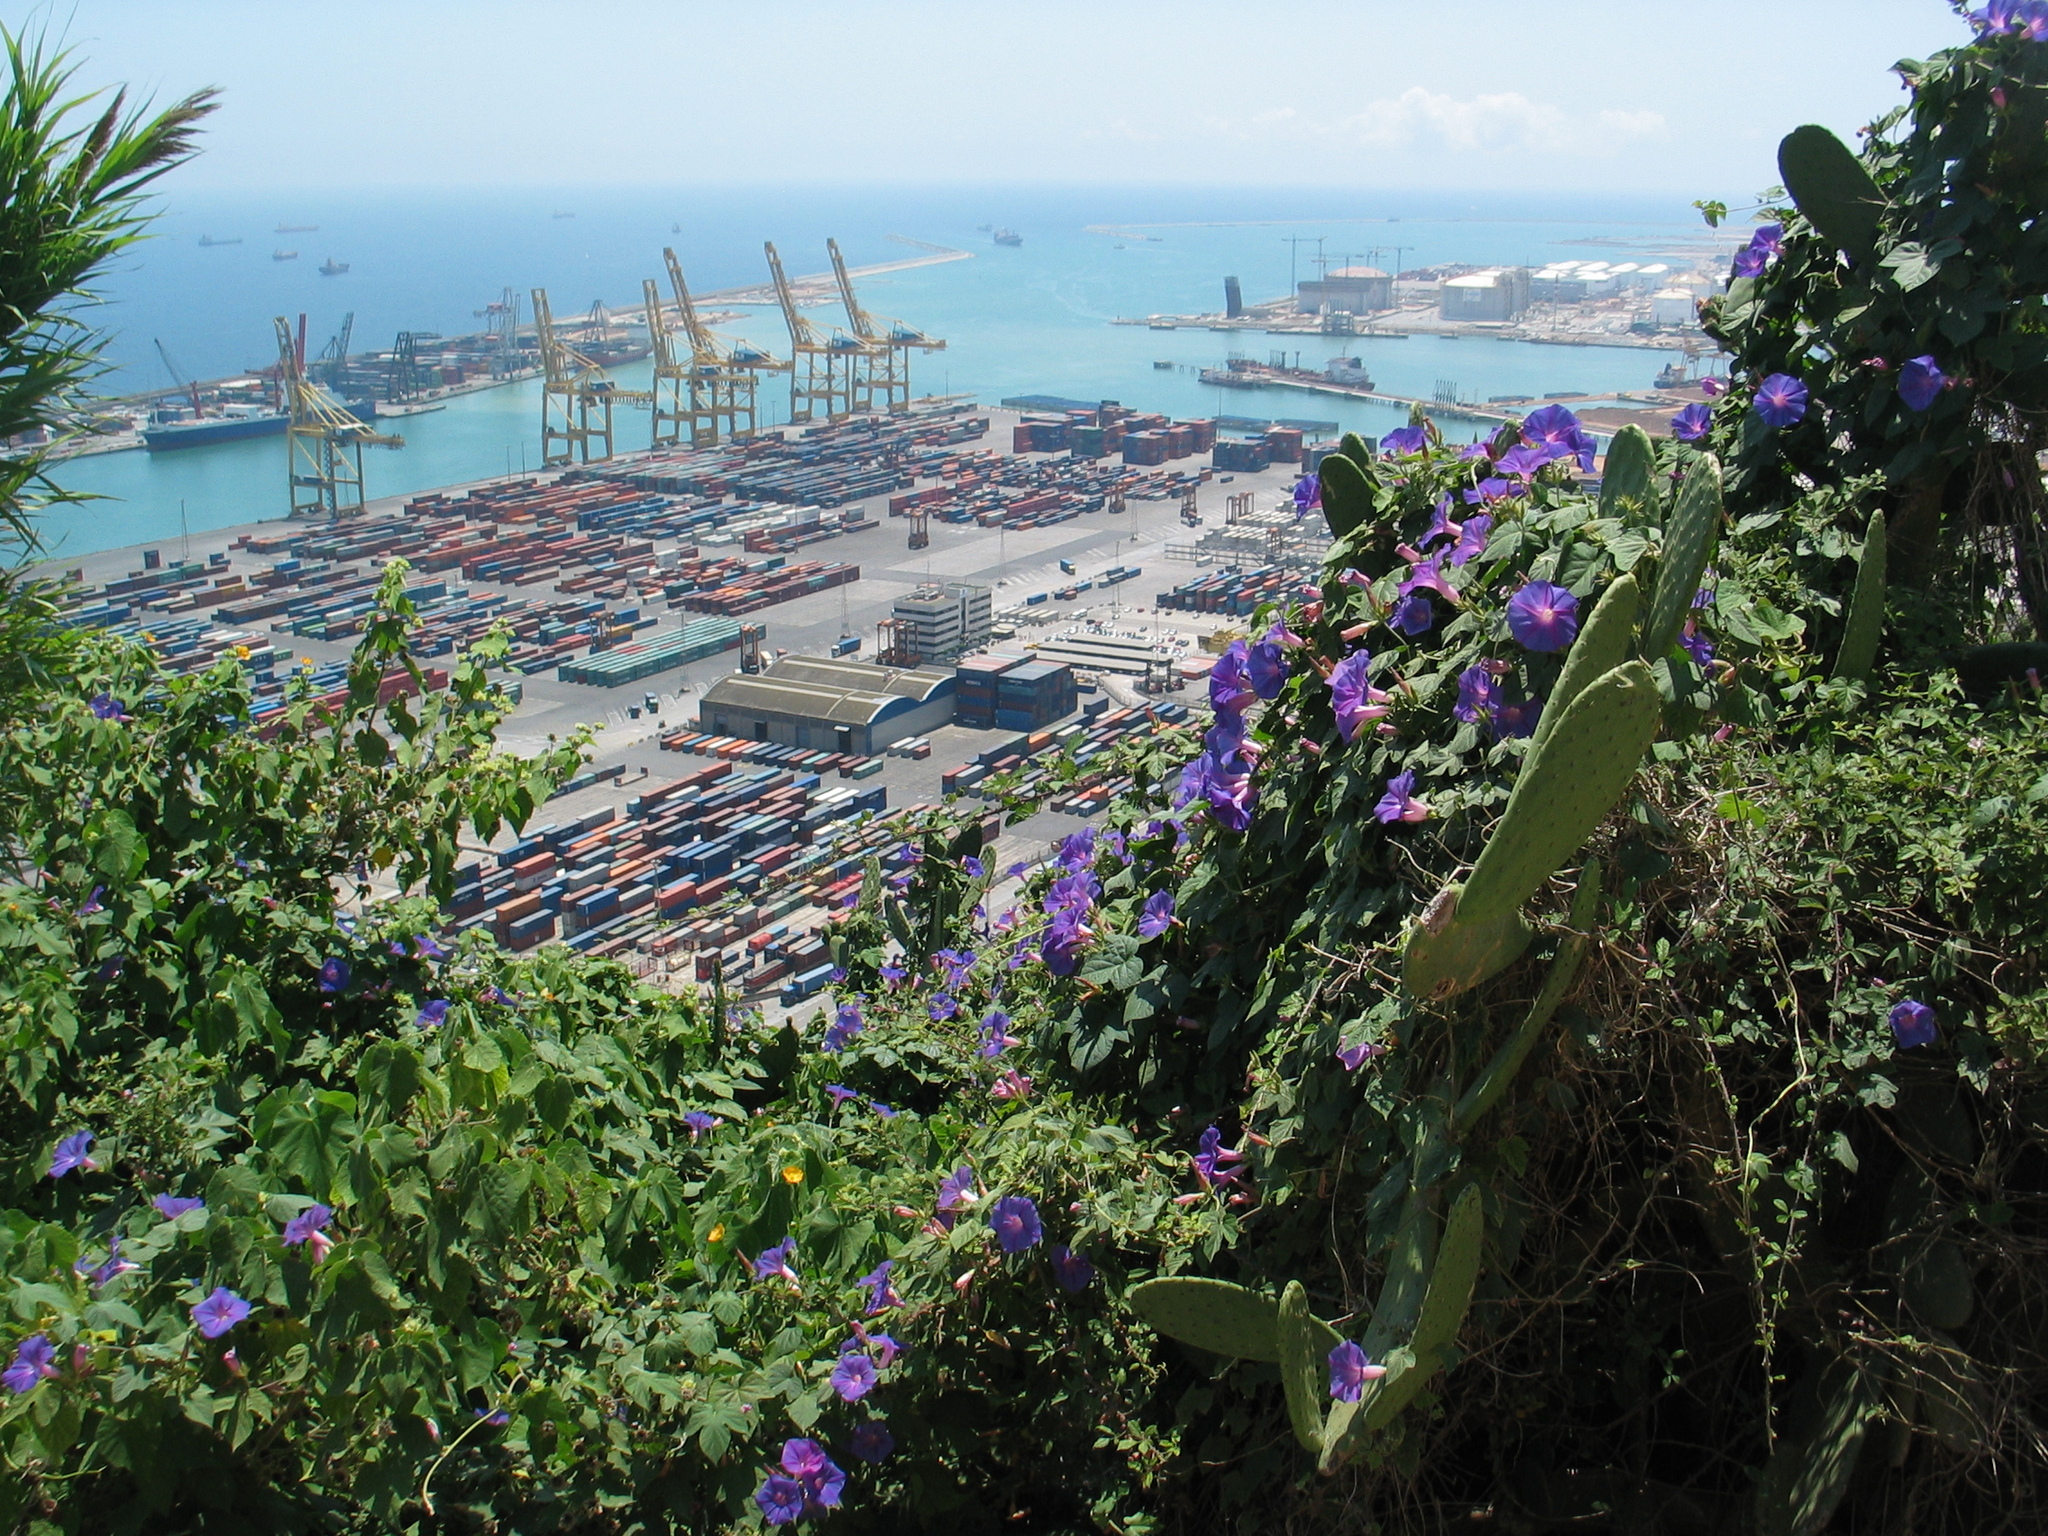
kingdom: Plantae
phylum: Tracheophyta
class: Magnoliopsida
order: Solanales
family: Convolvulaceae
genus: Ipomoea
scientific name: Ipomoea indica
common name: Blue dawnflower
